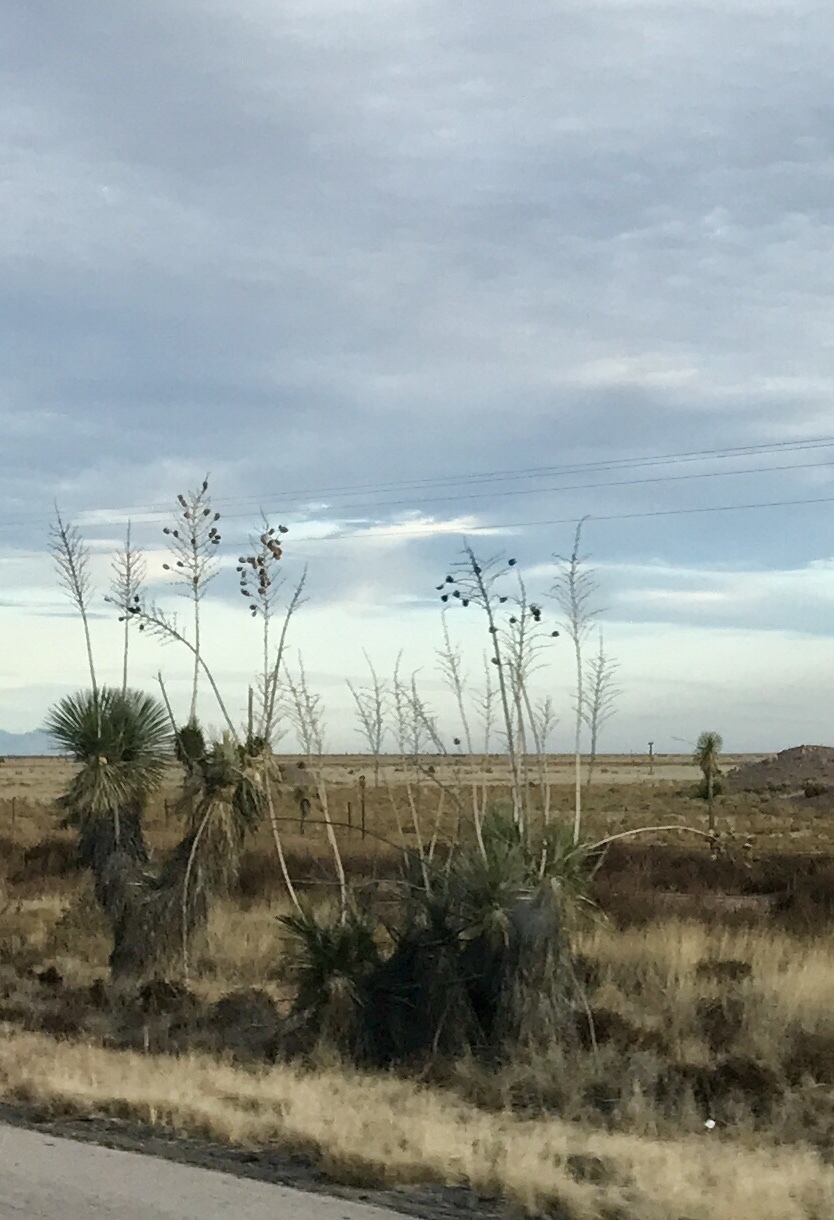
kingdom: Plantae
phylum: Tracheophyta
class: Liliopsida
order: Asparagales
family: Asparagaceae
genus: Yucca
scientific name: Yucca elata
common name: Palmella
